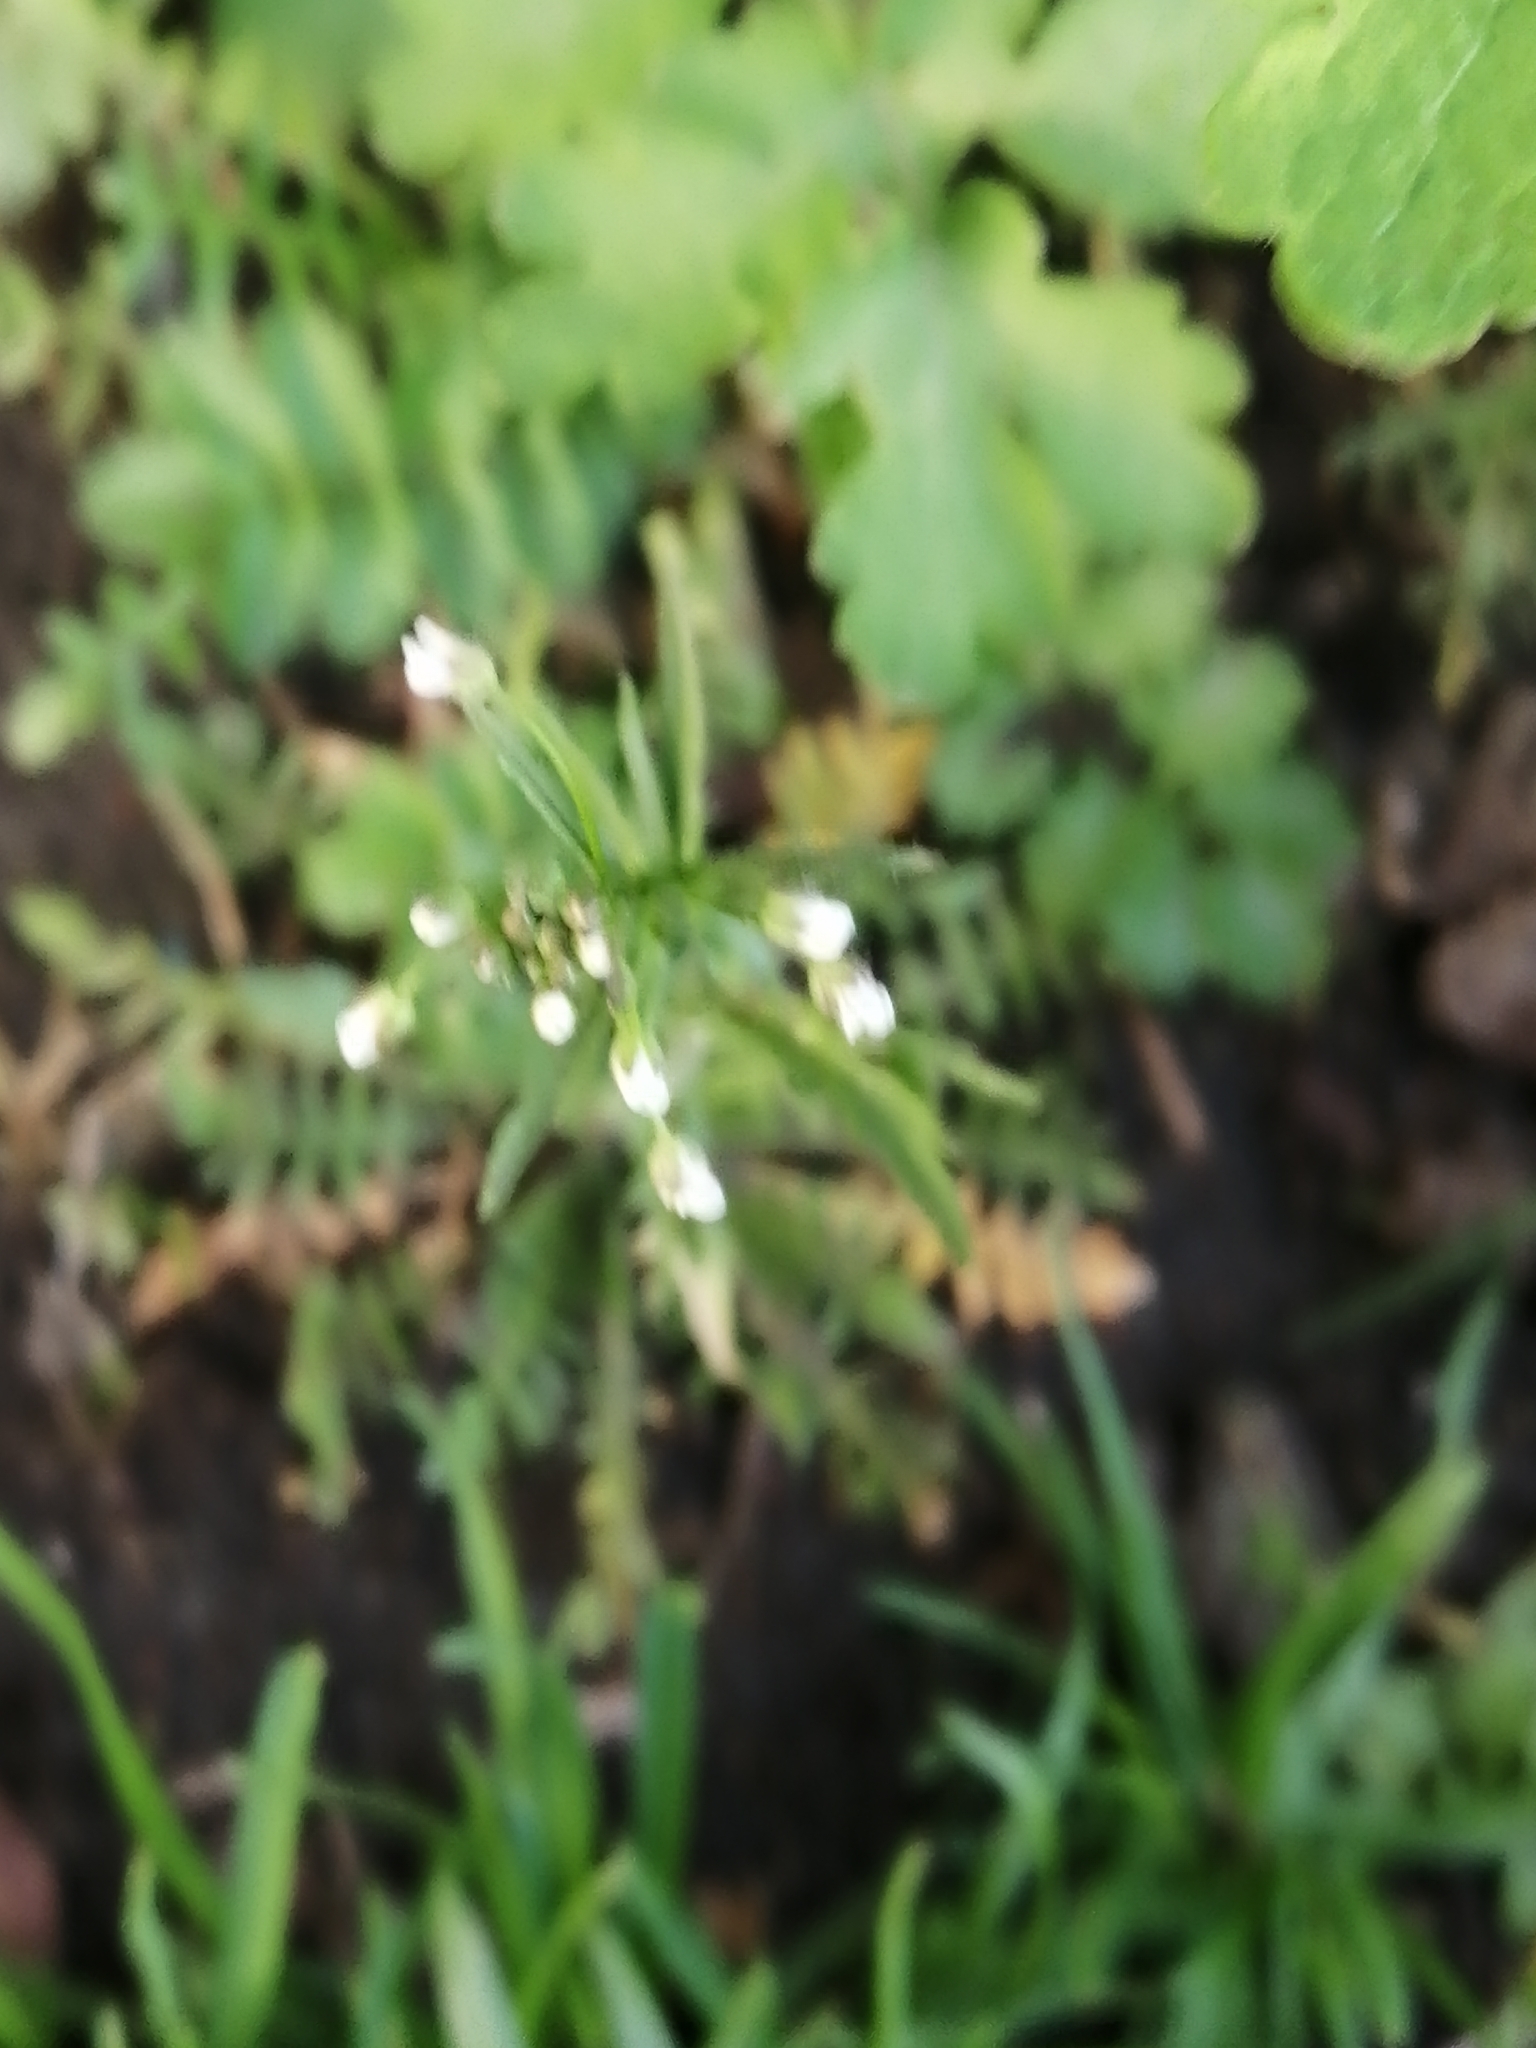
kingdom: Plantae
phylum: Tracheophyta
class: Magnoliopsida
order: Brassicales
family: Brassicaceae
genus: Capsella
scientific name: Capsella bursa-pastoris
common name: Shepherd's purse
